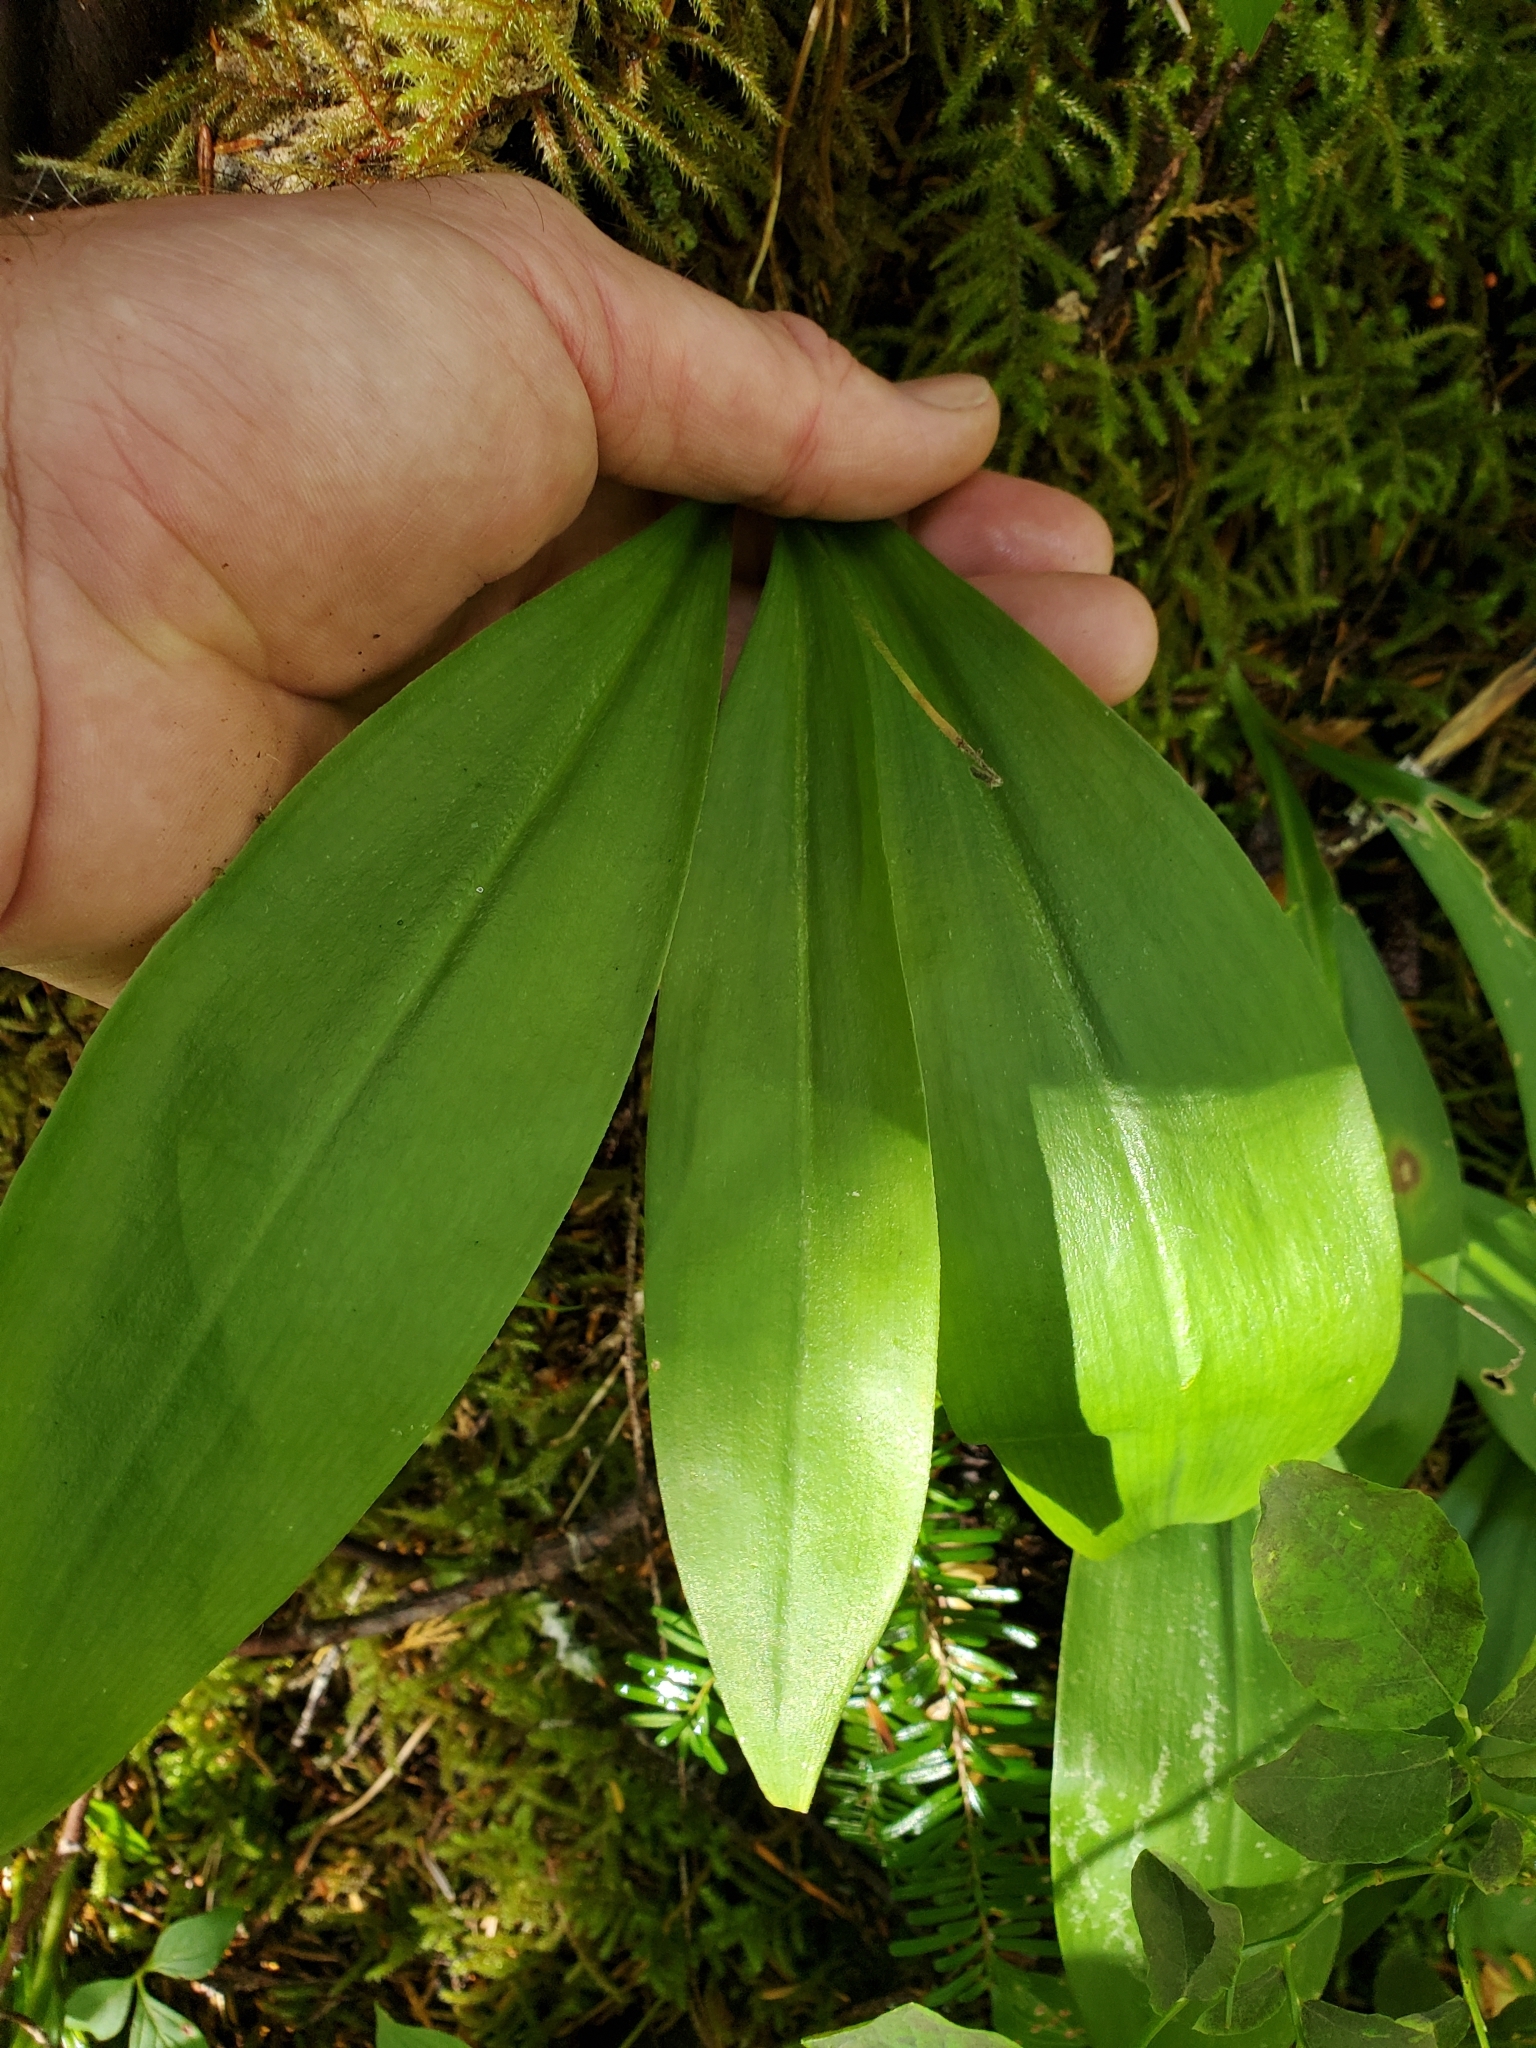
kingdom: Plantae
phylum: Tracheophyta
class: Liliopsida
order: Liliales
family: Liliaceae
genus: Clintonia
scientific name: Clintonia uniflora
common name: Queen's cup
